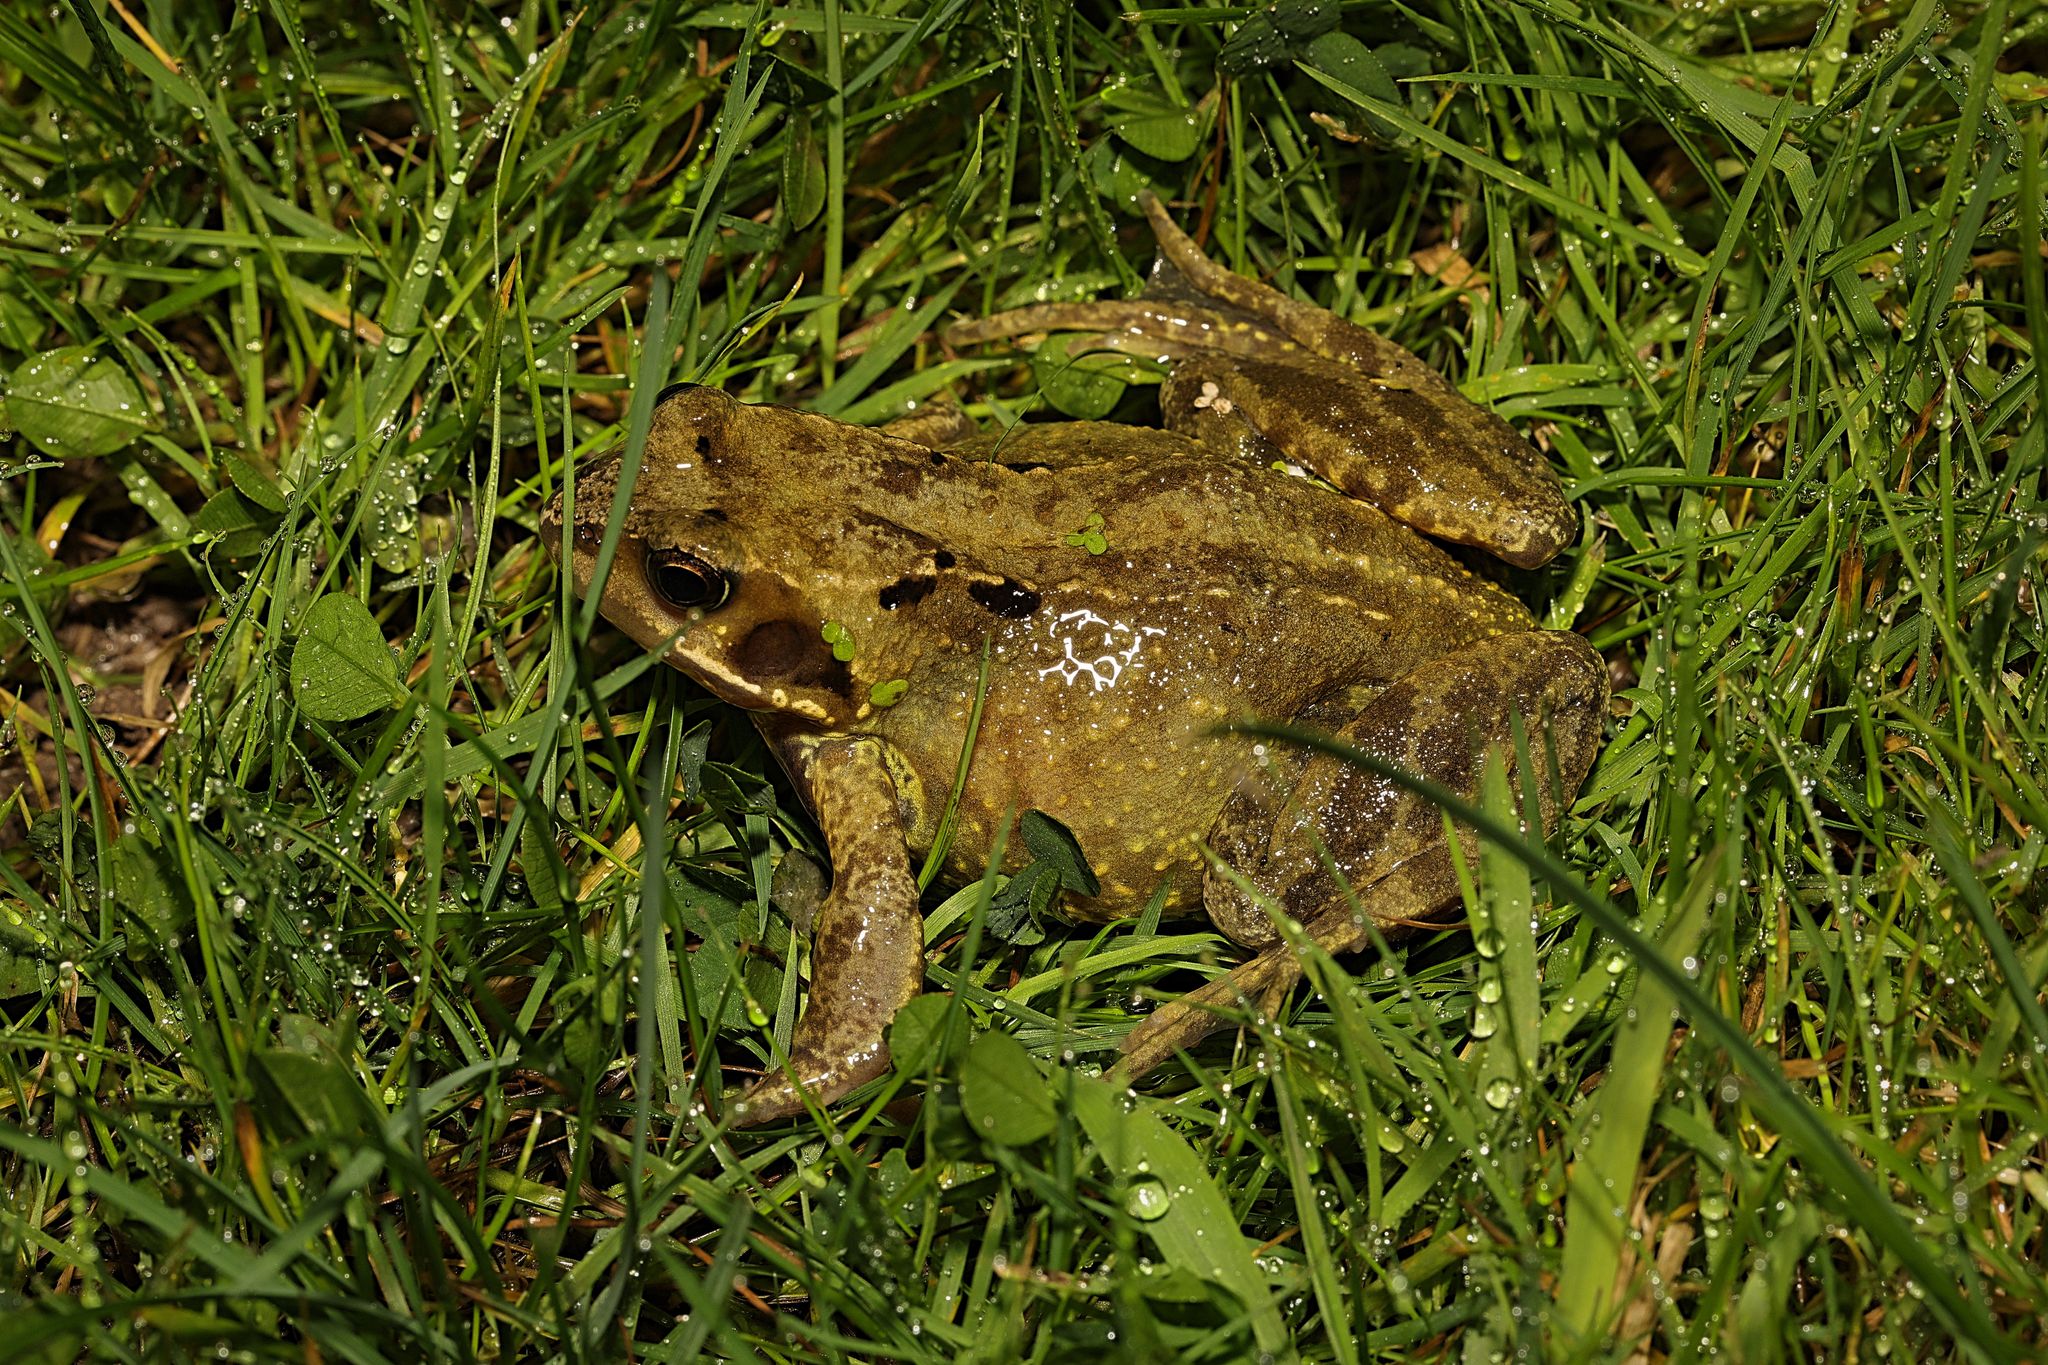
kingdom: Animalia
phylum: Chordata
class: Amphibia
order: Anura
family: Ranidae
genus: Rana
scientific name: Rana temporaria
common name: Common frog
